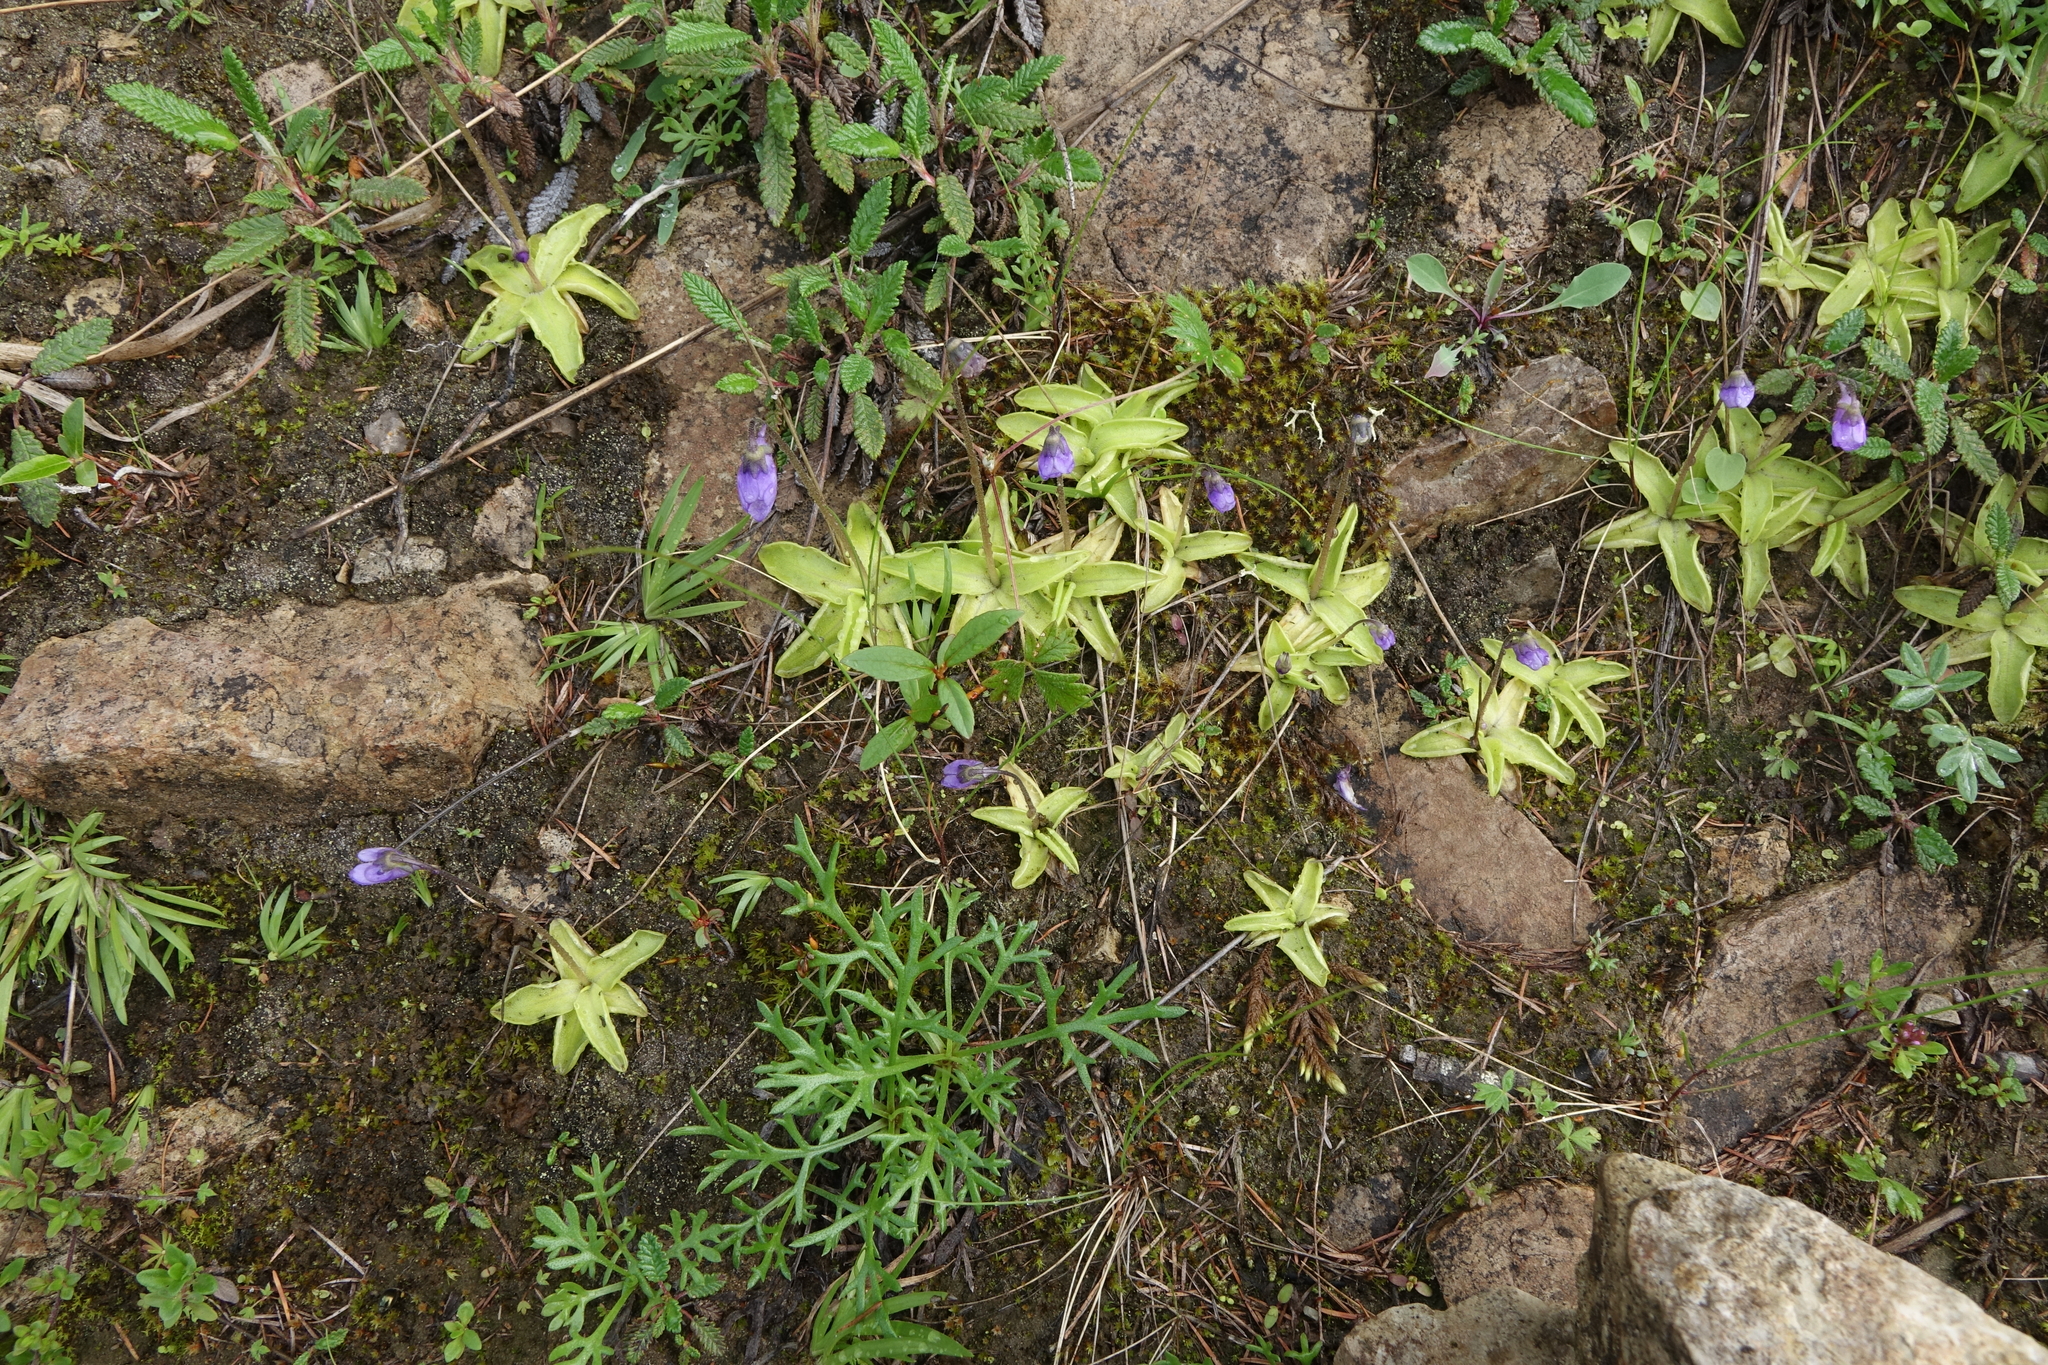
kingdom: Plantae
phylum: Tracheophyta
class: Magnoliopsida
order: Lamiales
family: Lentibulariaceae
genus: Pinguicula
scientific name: Pinguicula vulgaris
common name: Common butterwort
